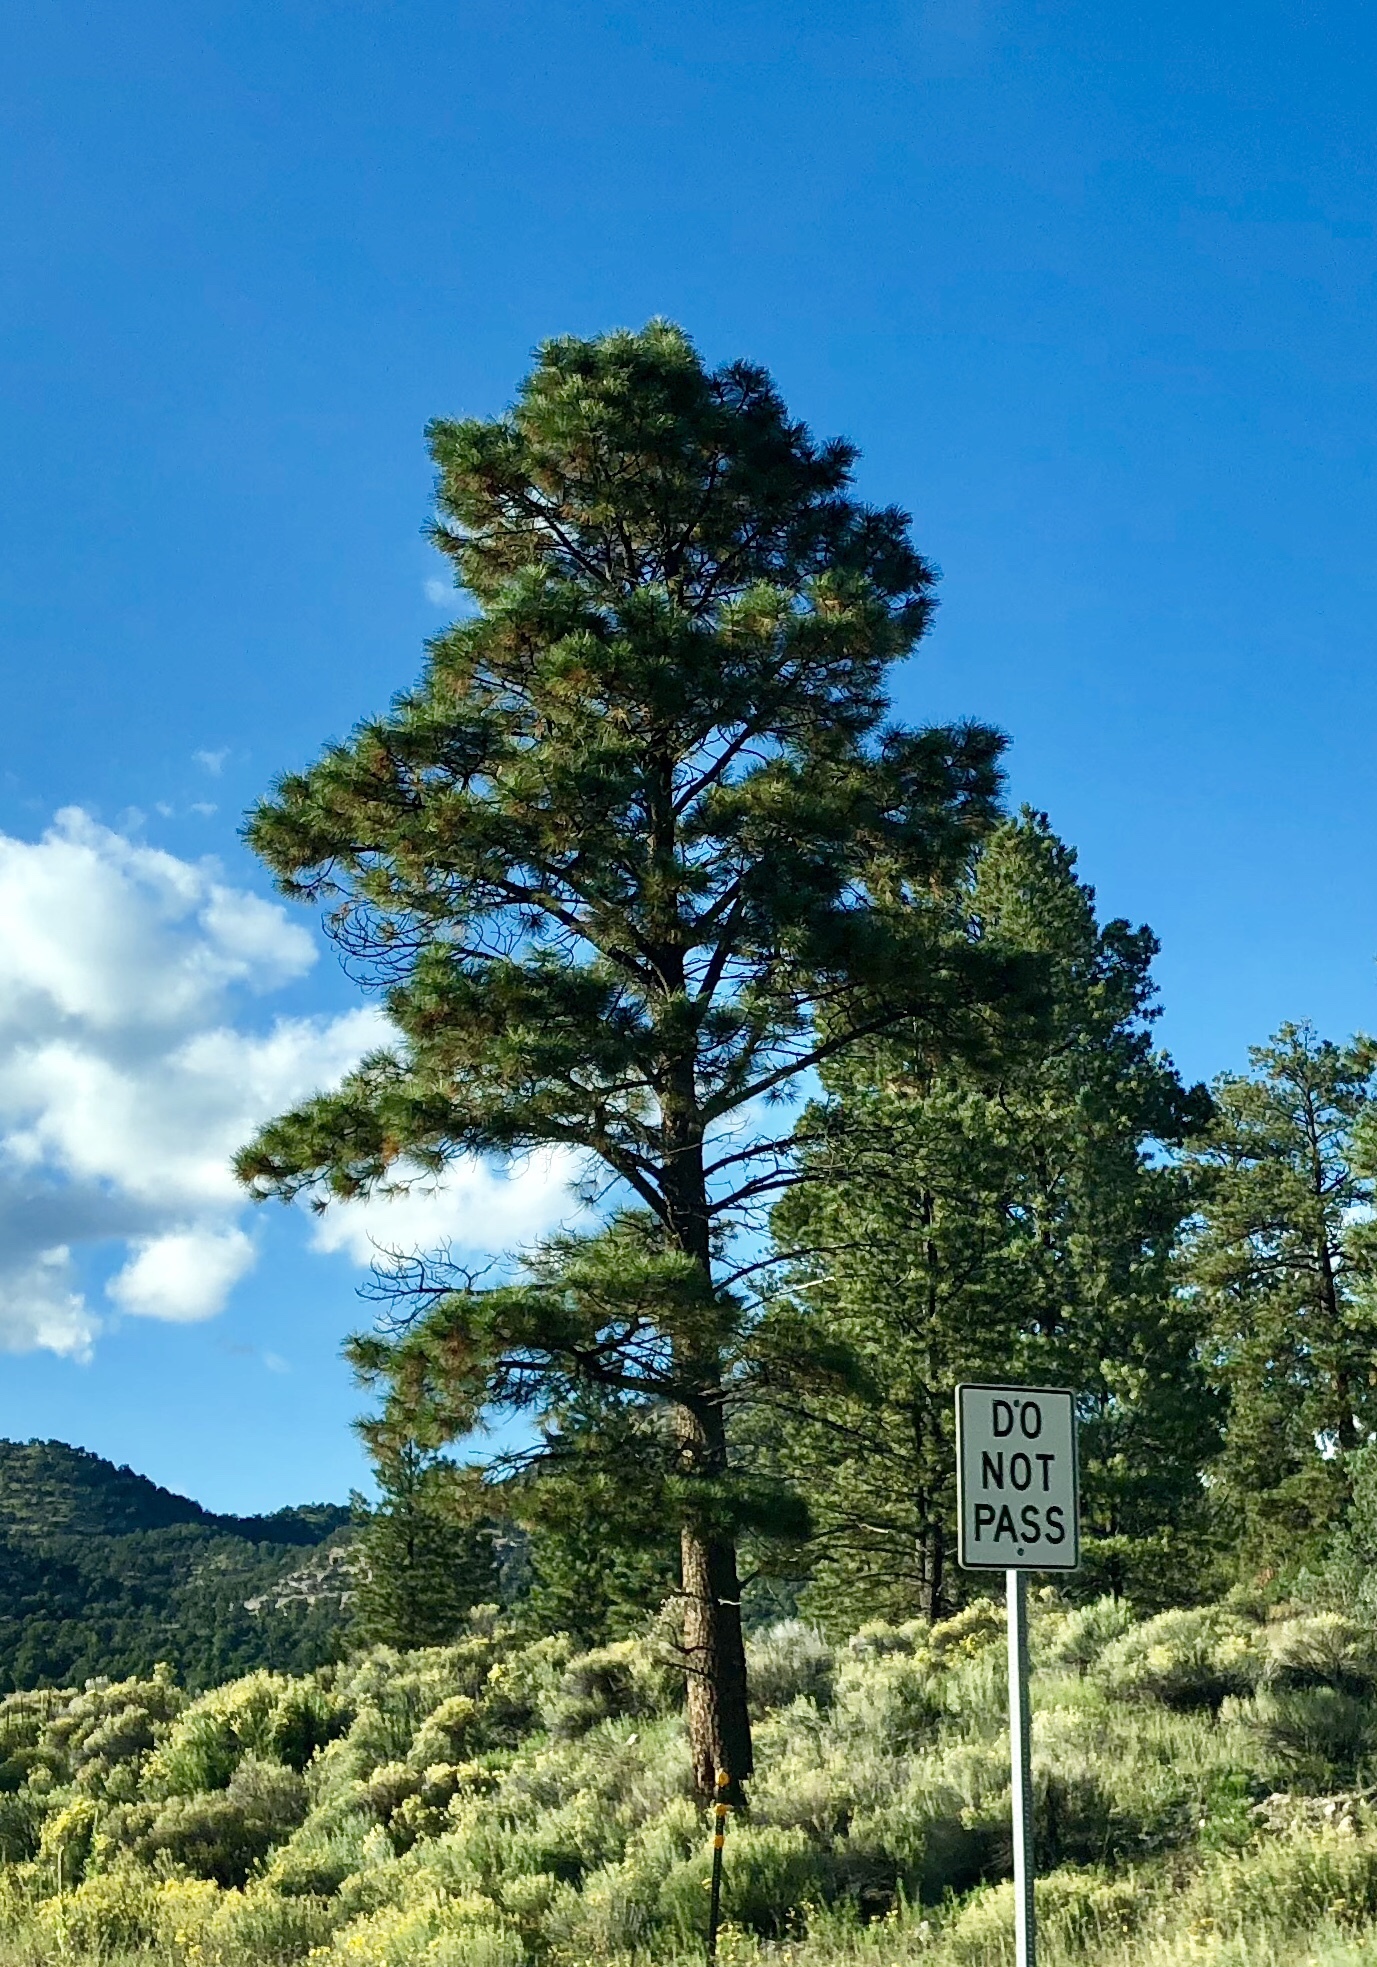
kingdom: Plantae
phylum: Tracheophyta
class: Pinopsida
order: Pinales
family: Pinaceae
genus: Pinus
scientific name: Pinus ponderosa
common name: Western yellow-pine
